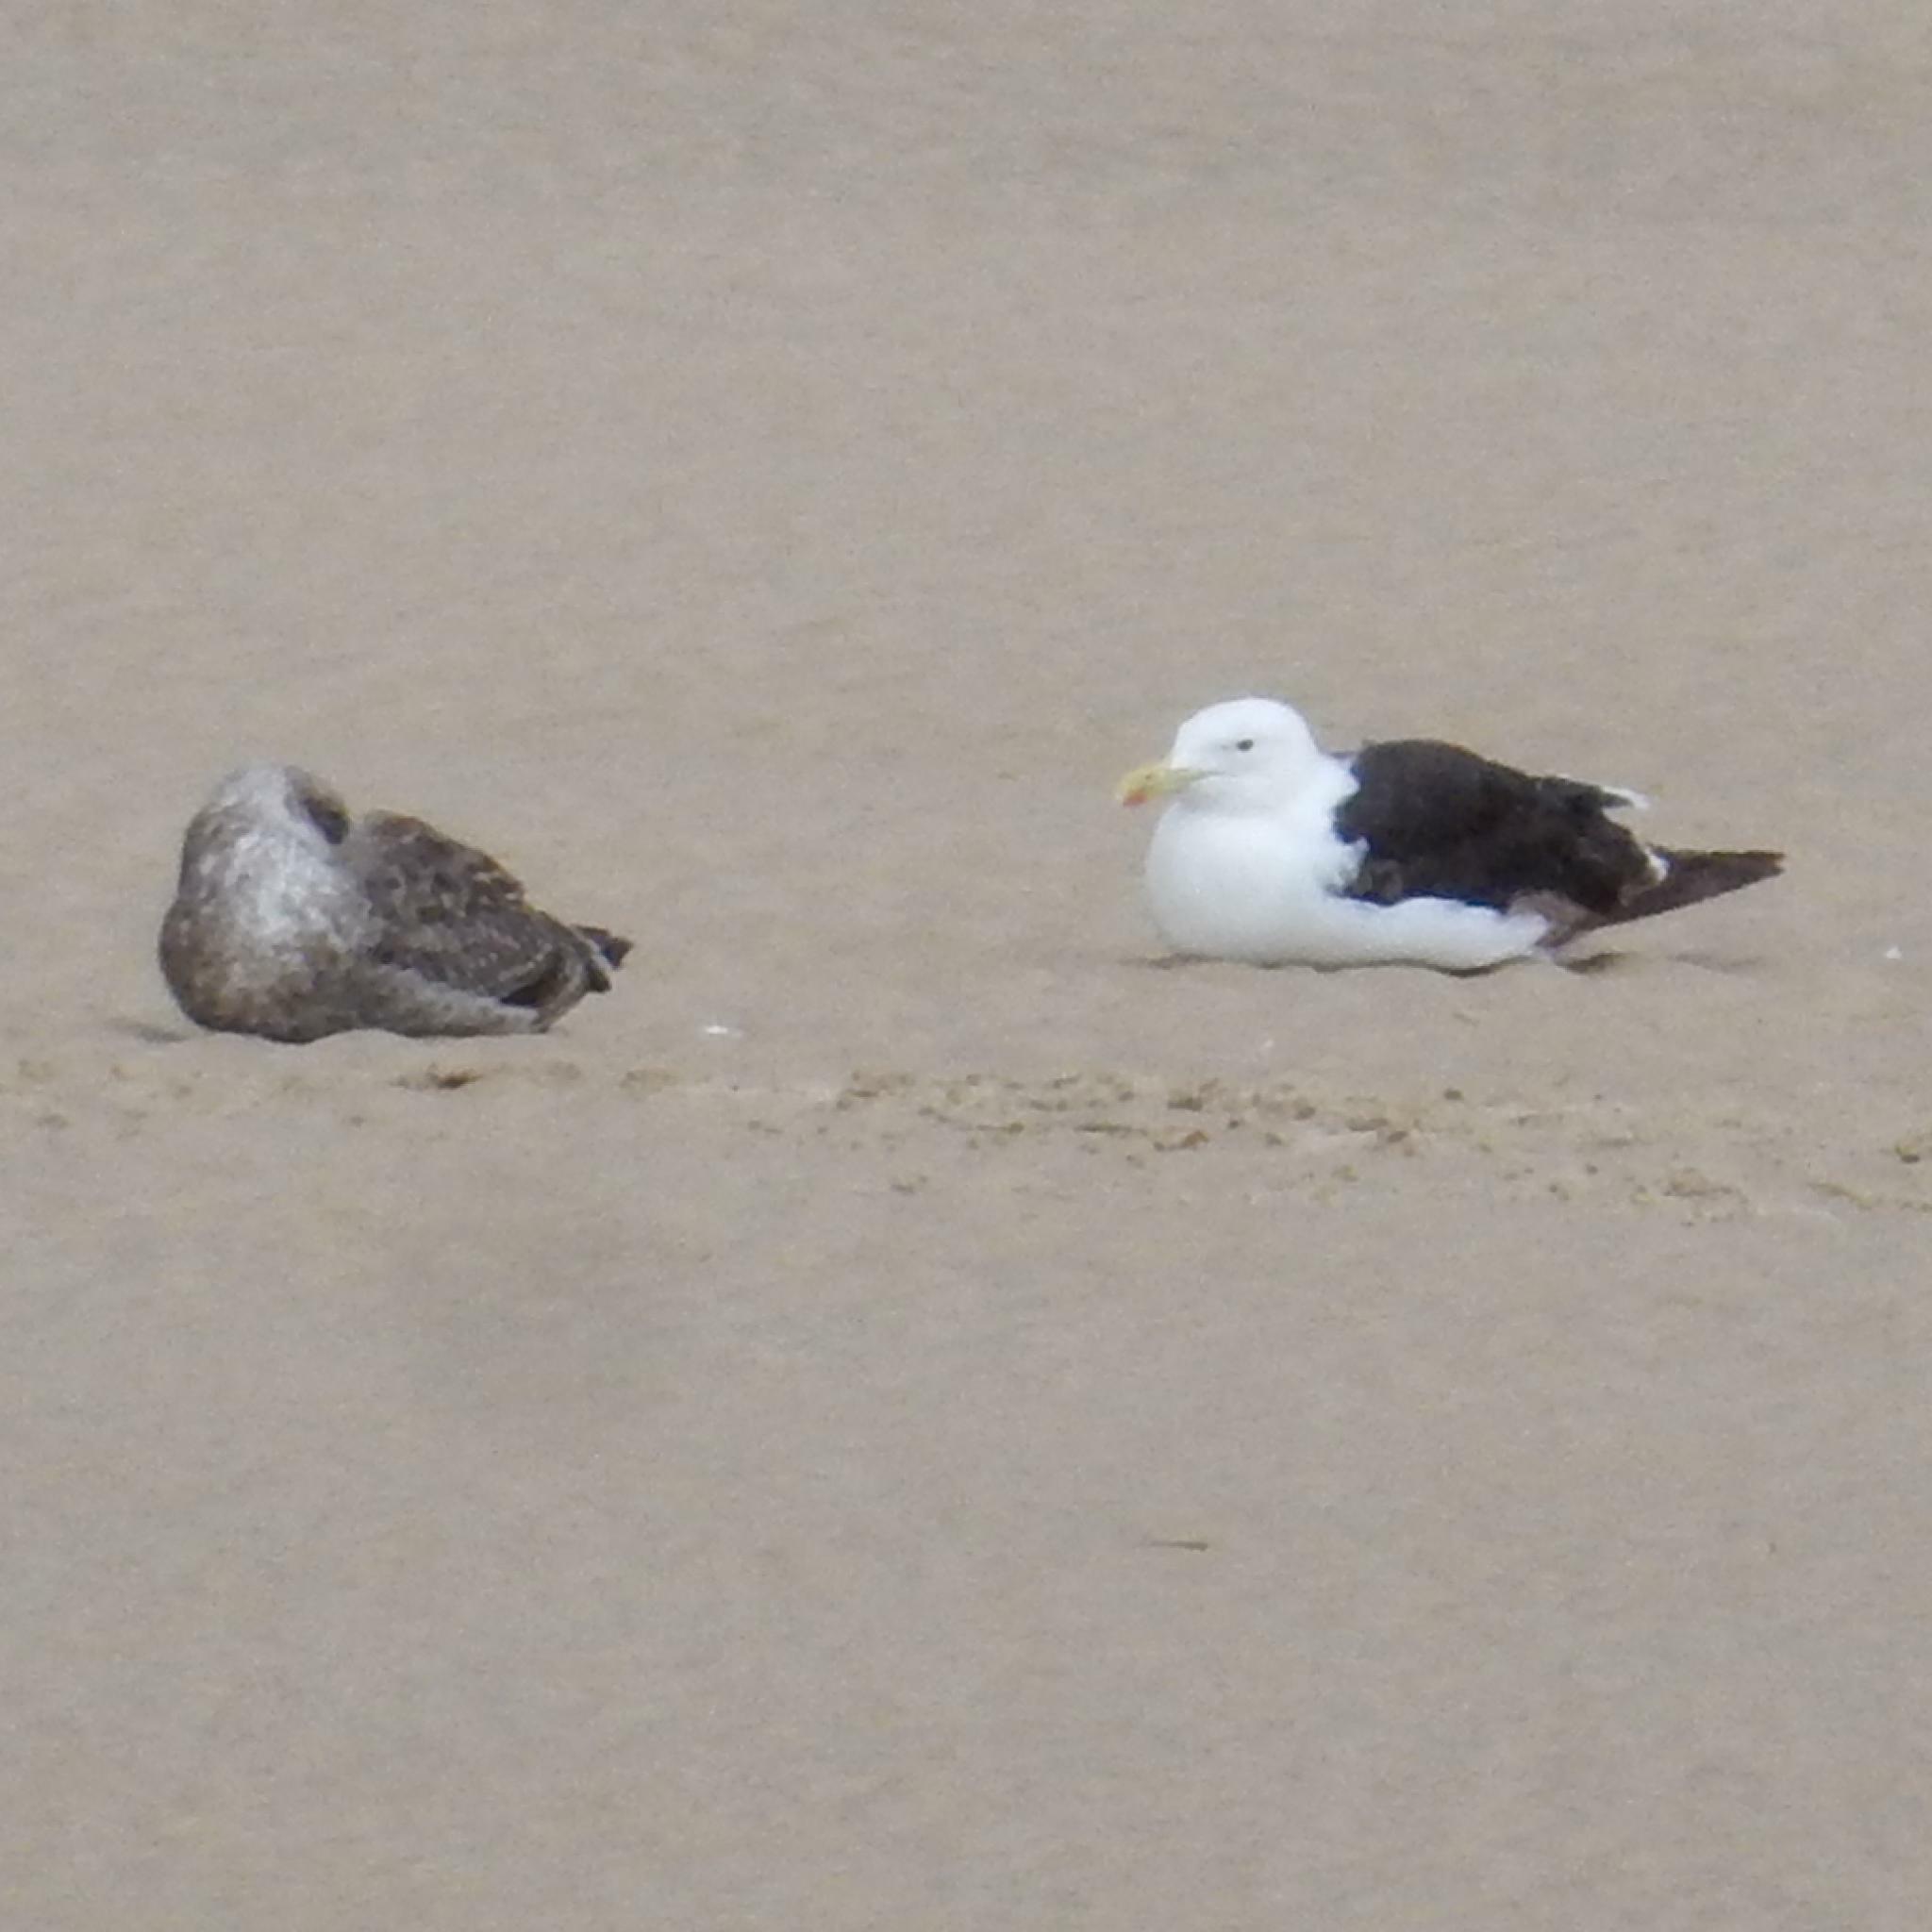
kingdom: Animalia
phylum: Chordata
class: Aves
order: Charadriiformes
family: Laridae
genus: Larus
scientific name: Larus dominicanus
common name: Kelp gull
